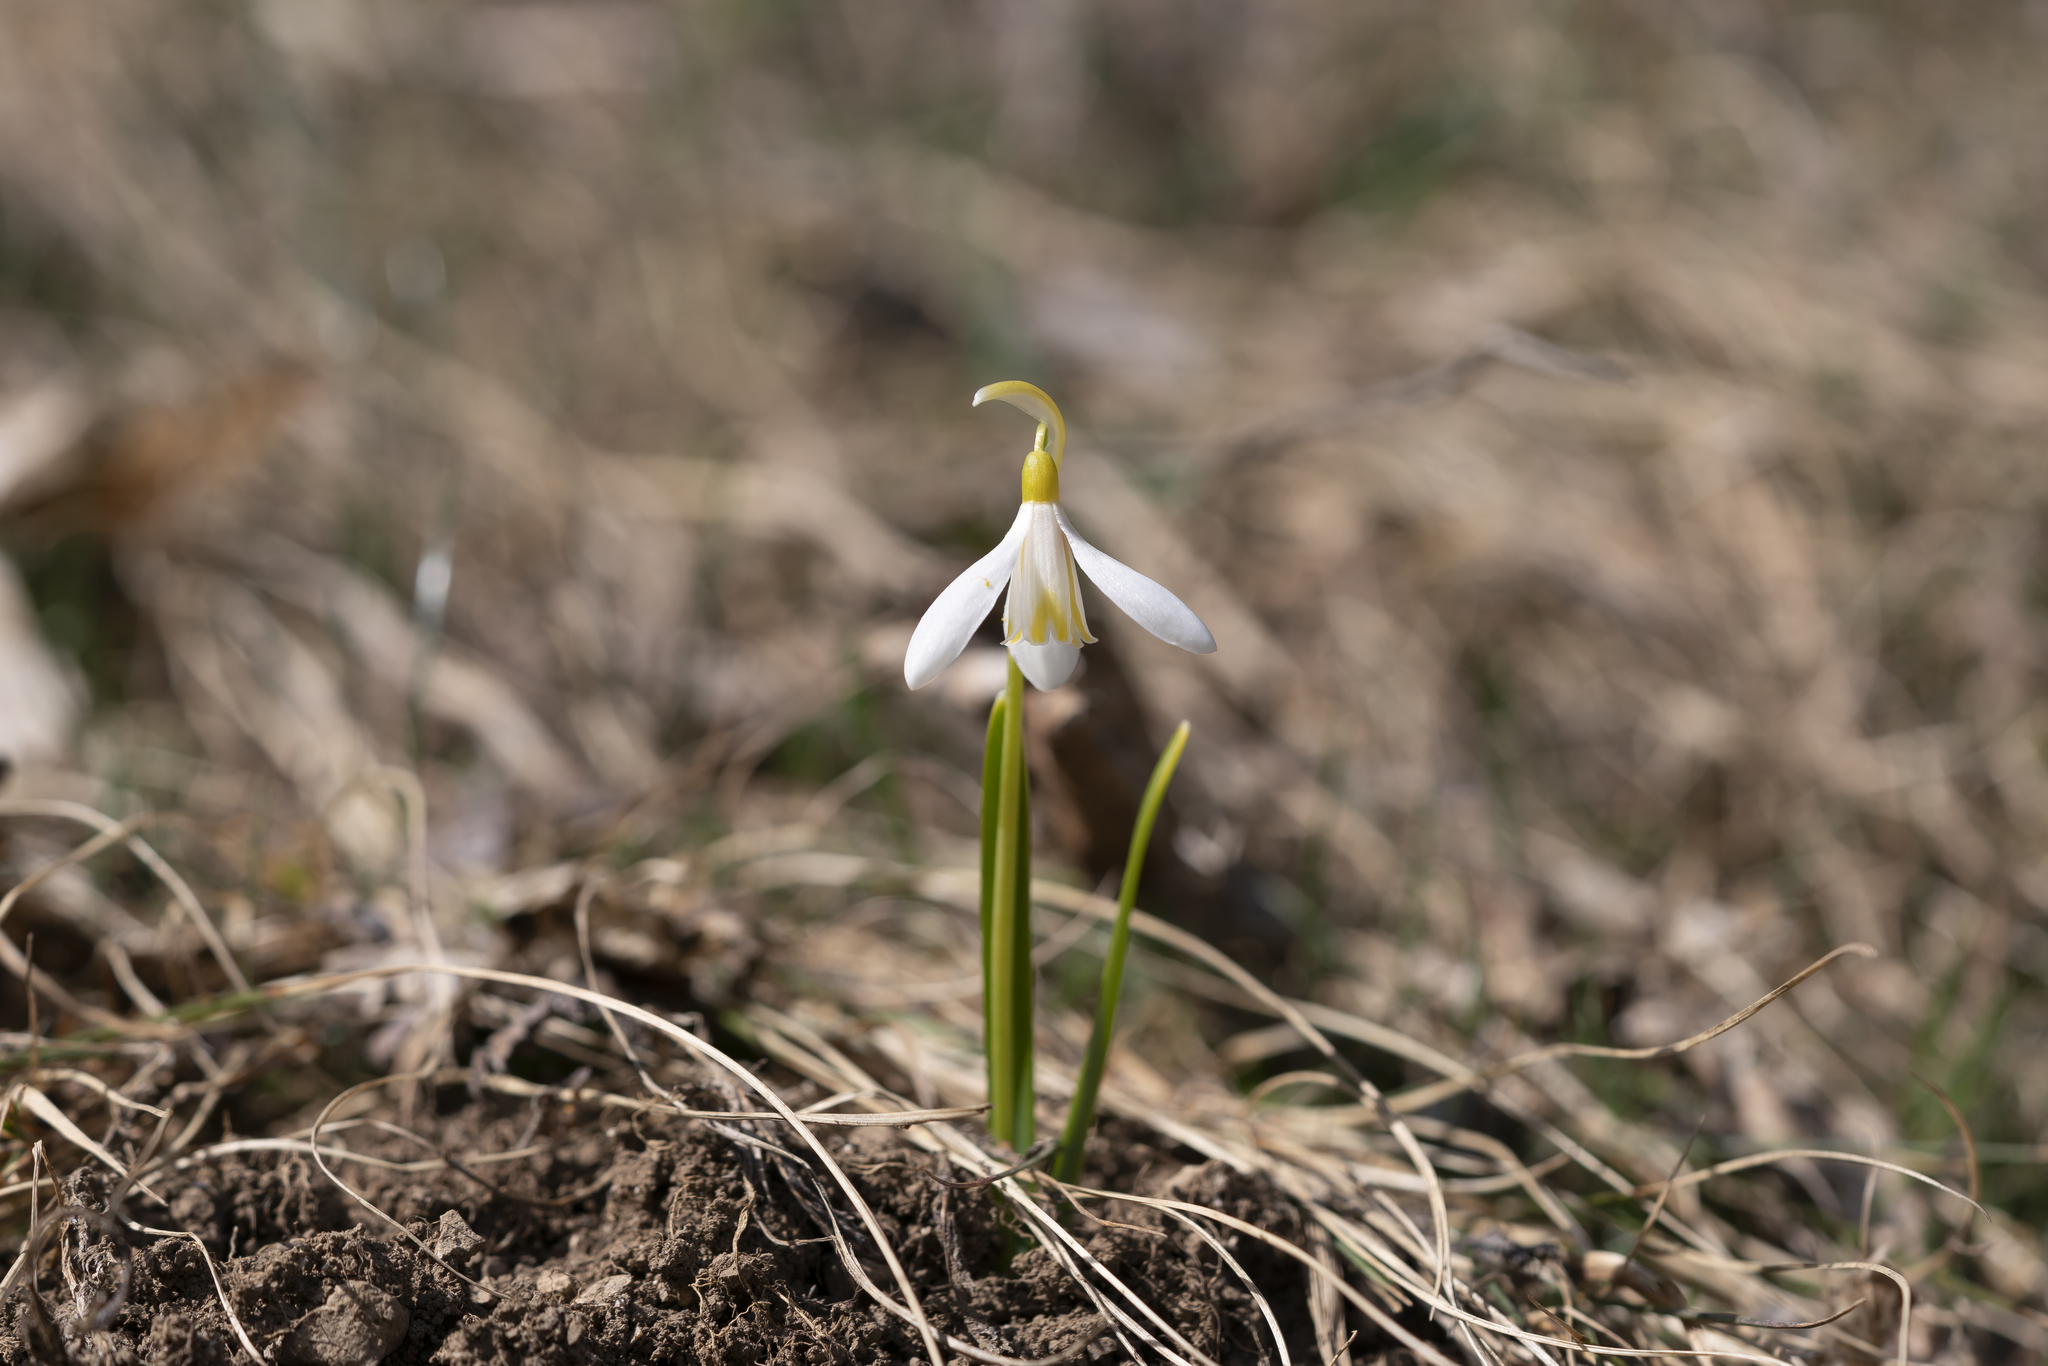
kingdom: Plantae
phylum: Tracheophyta
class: Liliopsida
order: Asparagales
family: Amaryllidaceae
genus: Galanthus
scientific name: Galanthus nivalis
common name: Snowdrop
